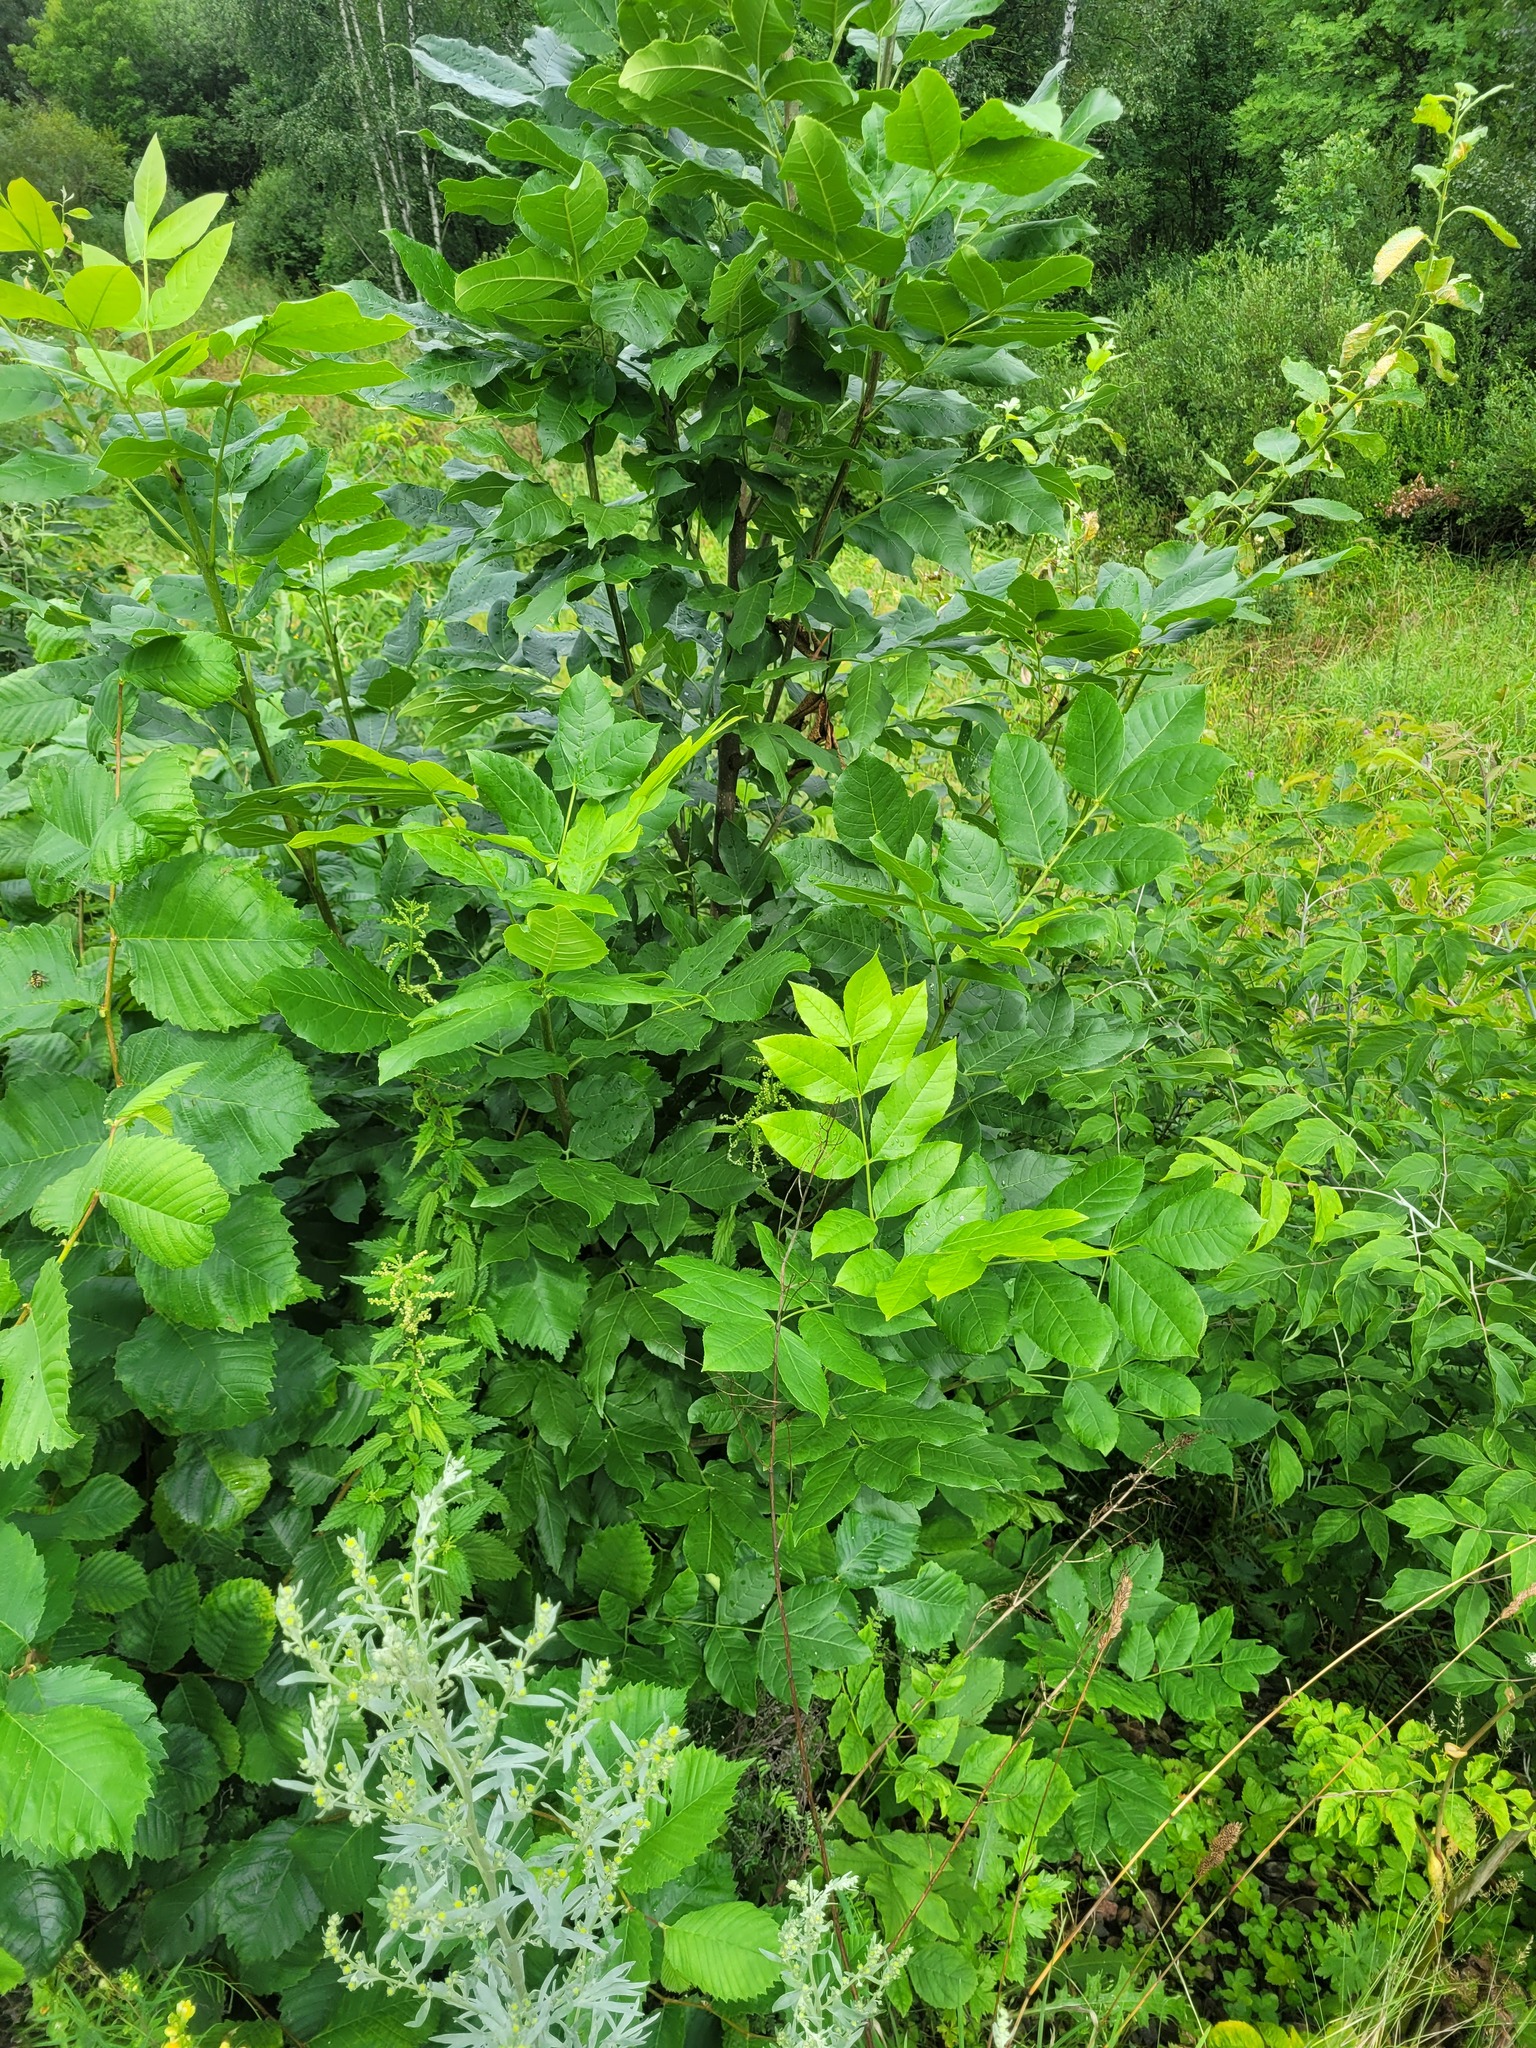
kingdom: Plantae
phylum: Tracheophyta
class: Magnoliopsida
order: Lamiales
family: Oleaceae
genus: Fraxinus
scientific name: Fraxinus pennsylvanica
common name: Green ash
